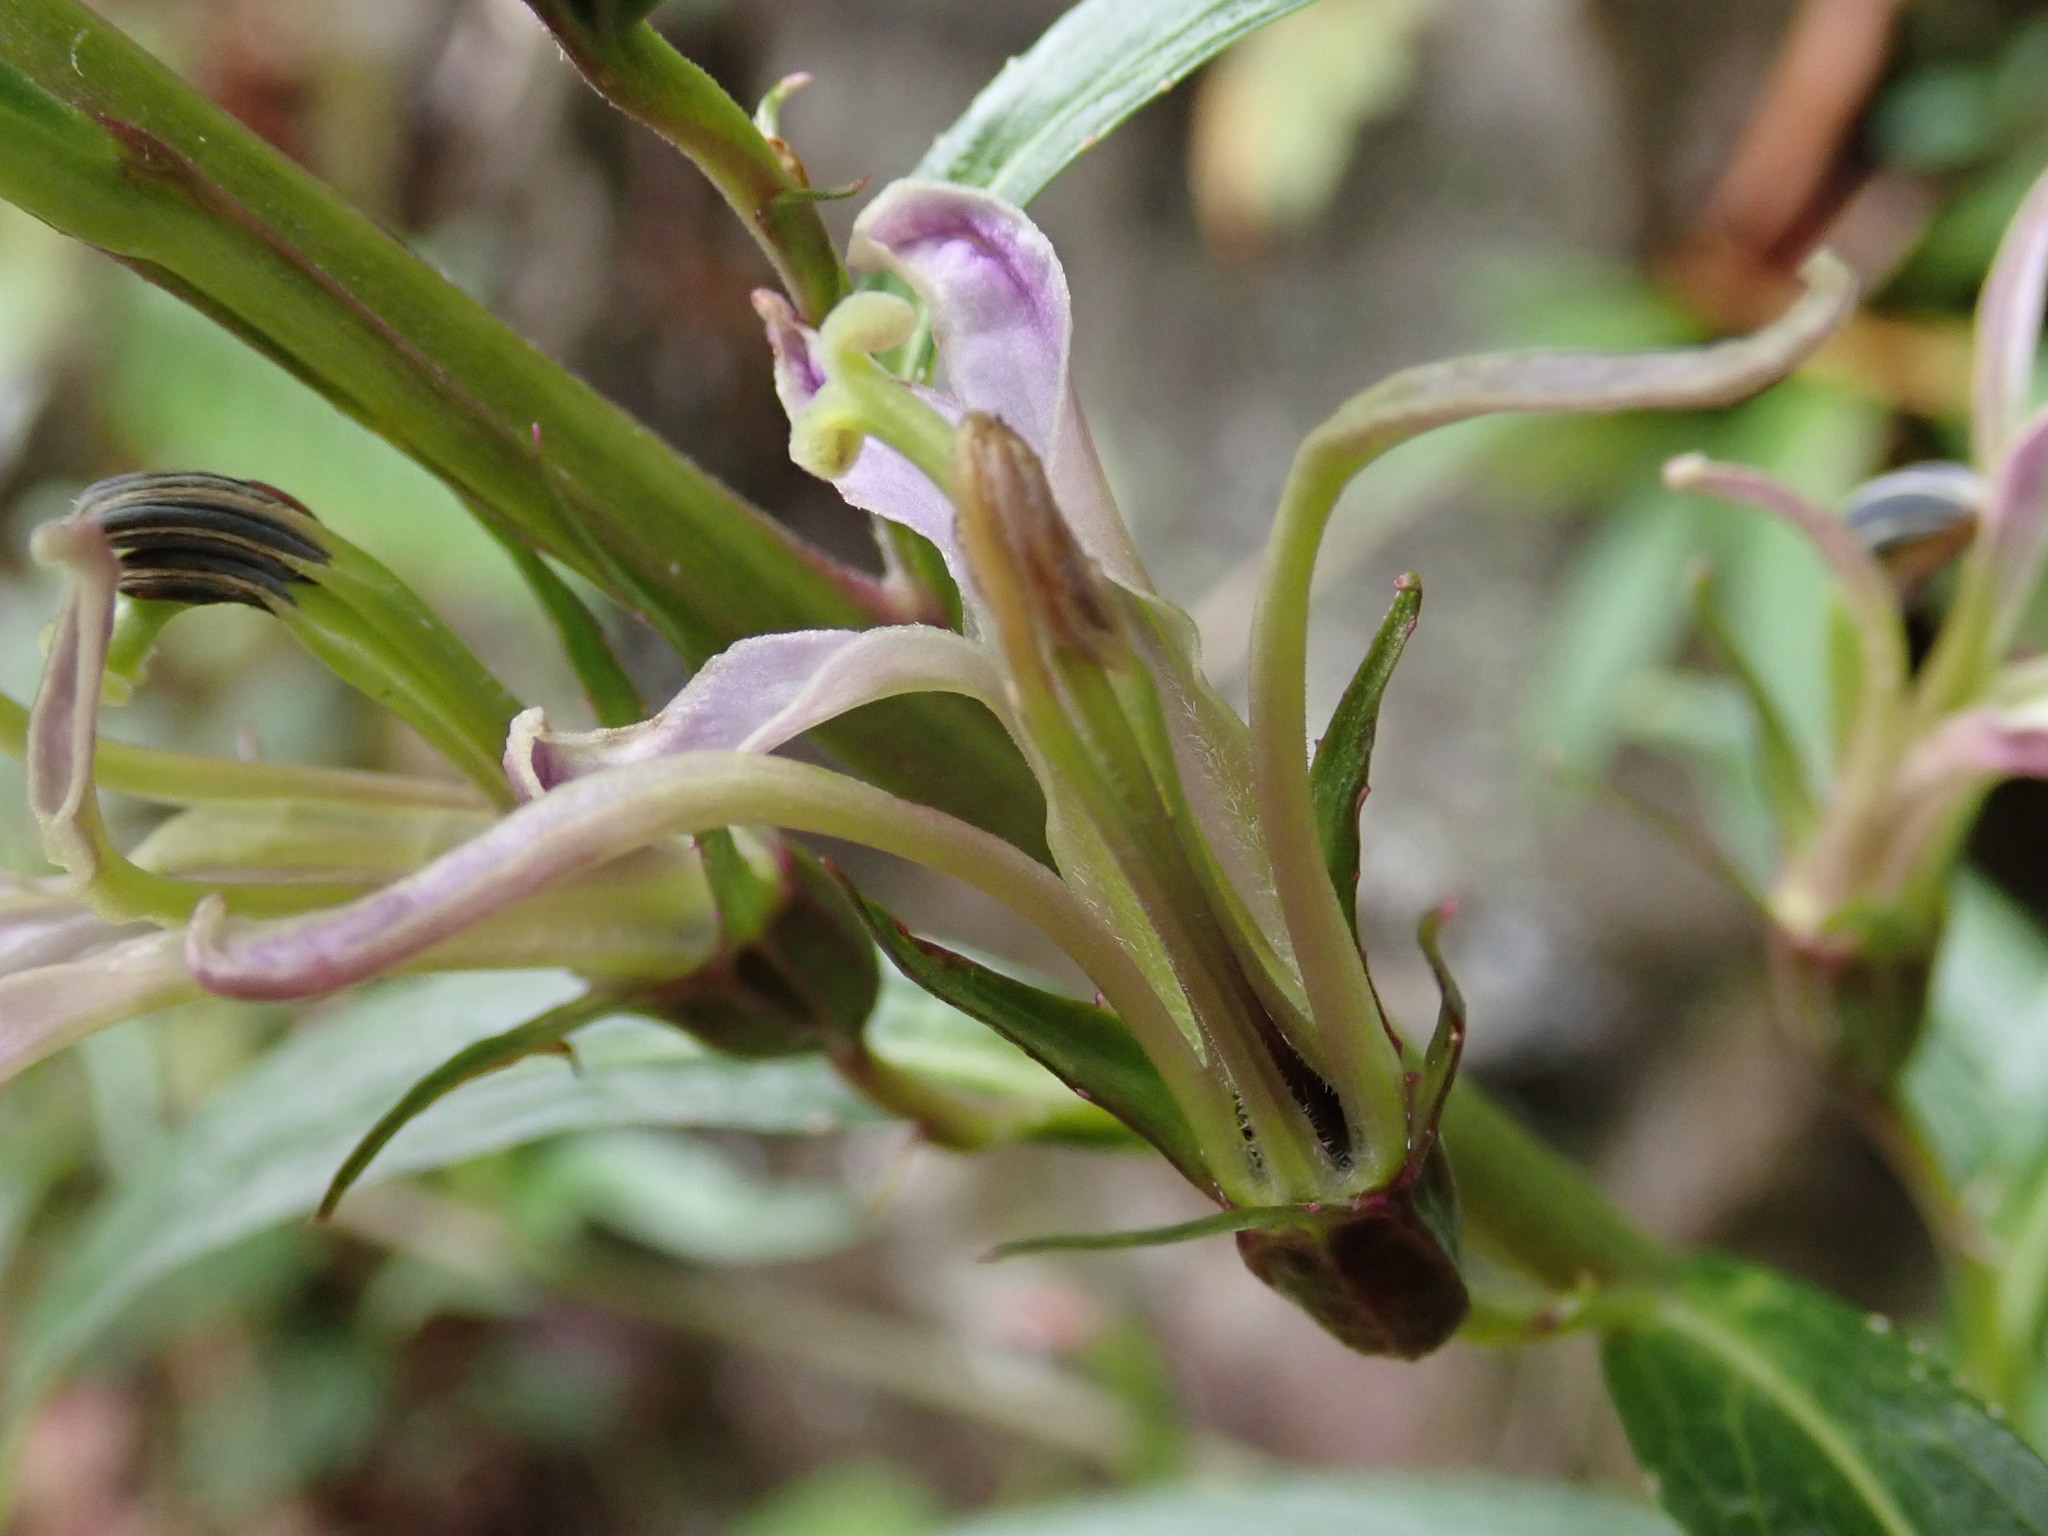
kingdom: Plantae
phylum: Tracheophyta
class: Magnoliopsida
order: Asterales
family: Campanulaceae
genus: Lobelia
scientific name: Lobelia seguinii
